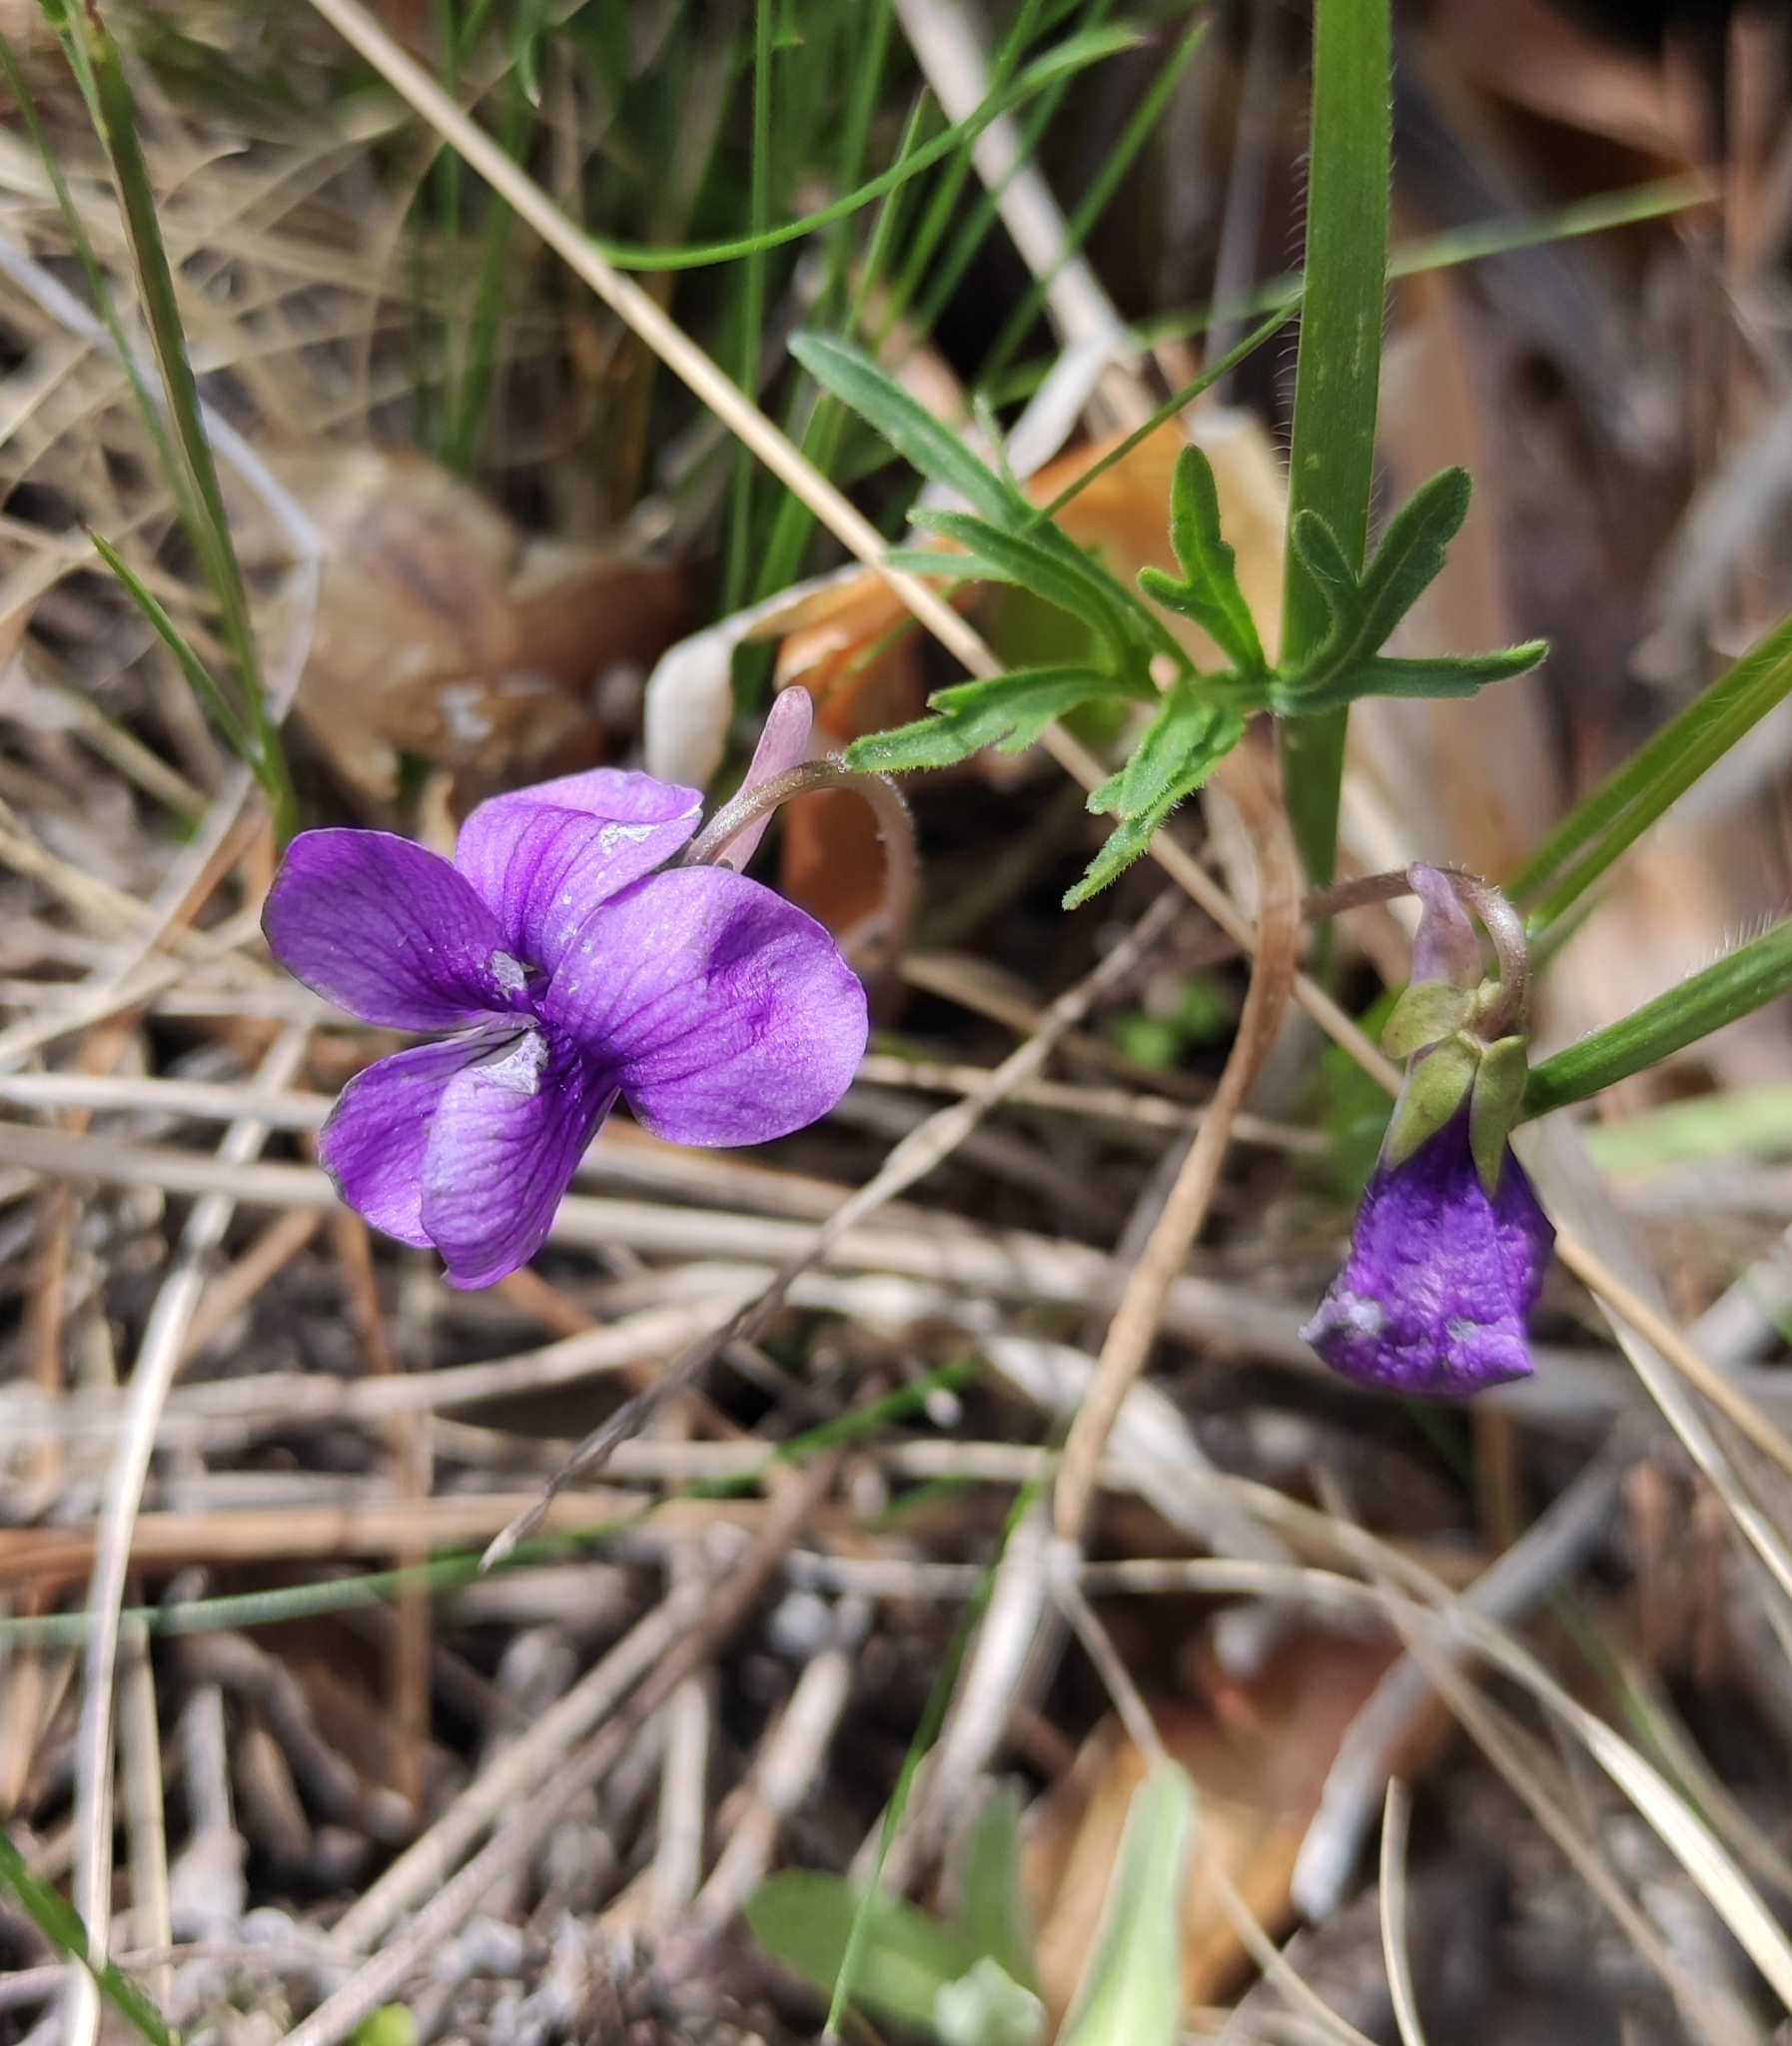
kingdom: Plantae
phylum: Tracheophyta
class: Magnoliopsida
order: Malpighiales
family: Violaceae
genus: Viola
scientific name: Viola multifida
